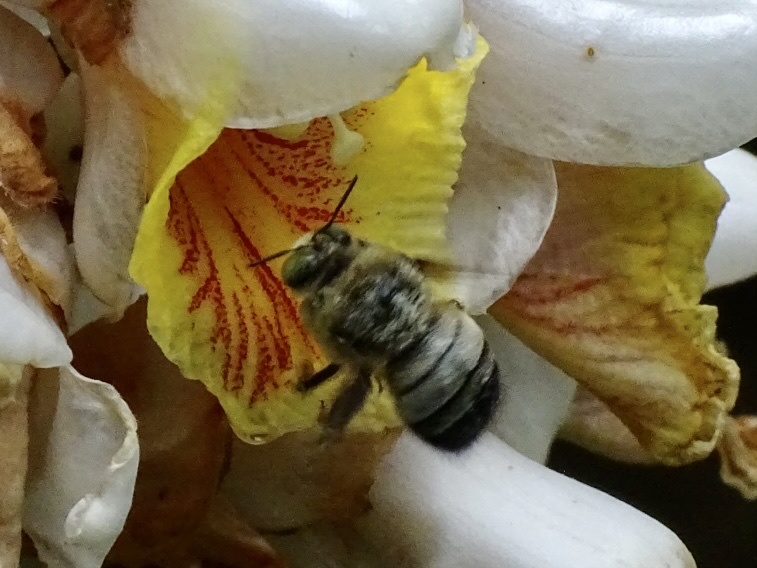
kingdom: Animalia
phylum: Arthropoda
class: Insecta
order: Hymenoptera
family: Apidae
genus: Xylocopa
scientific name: Xylocopa dejeanii
